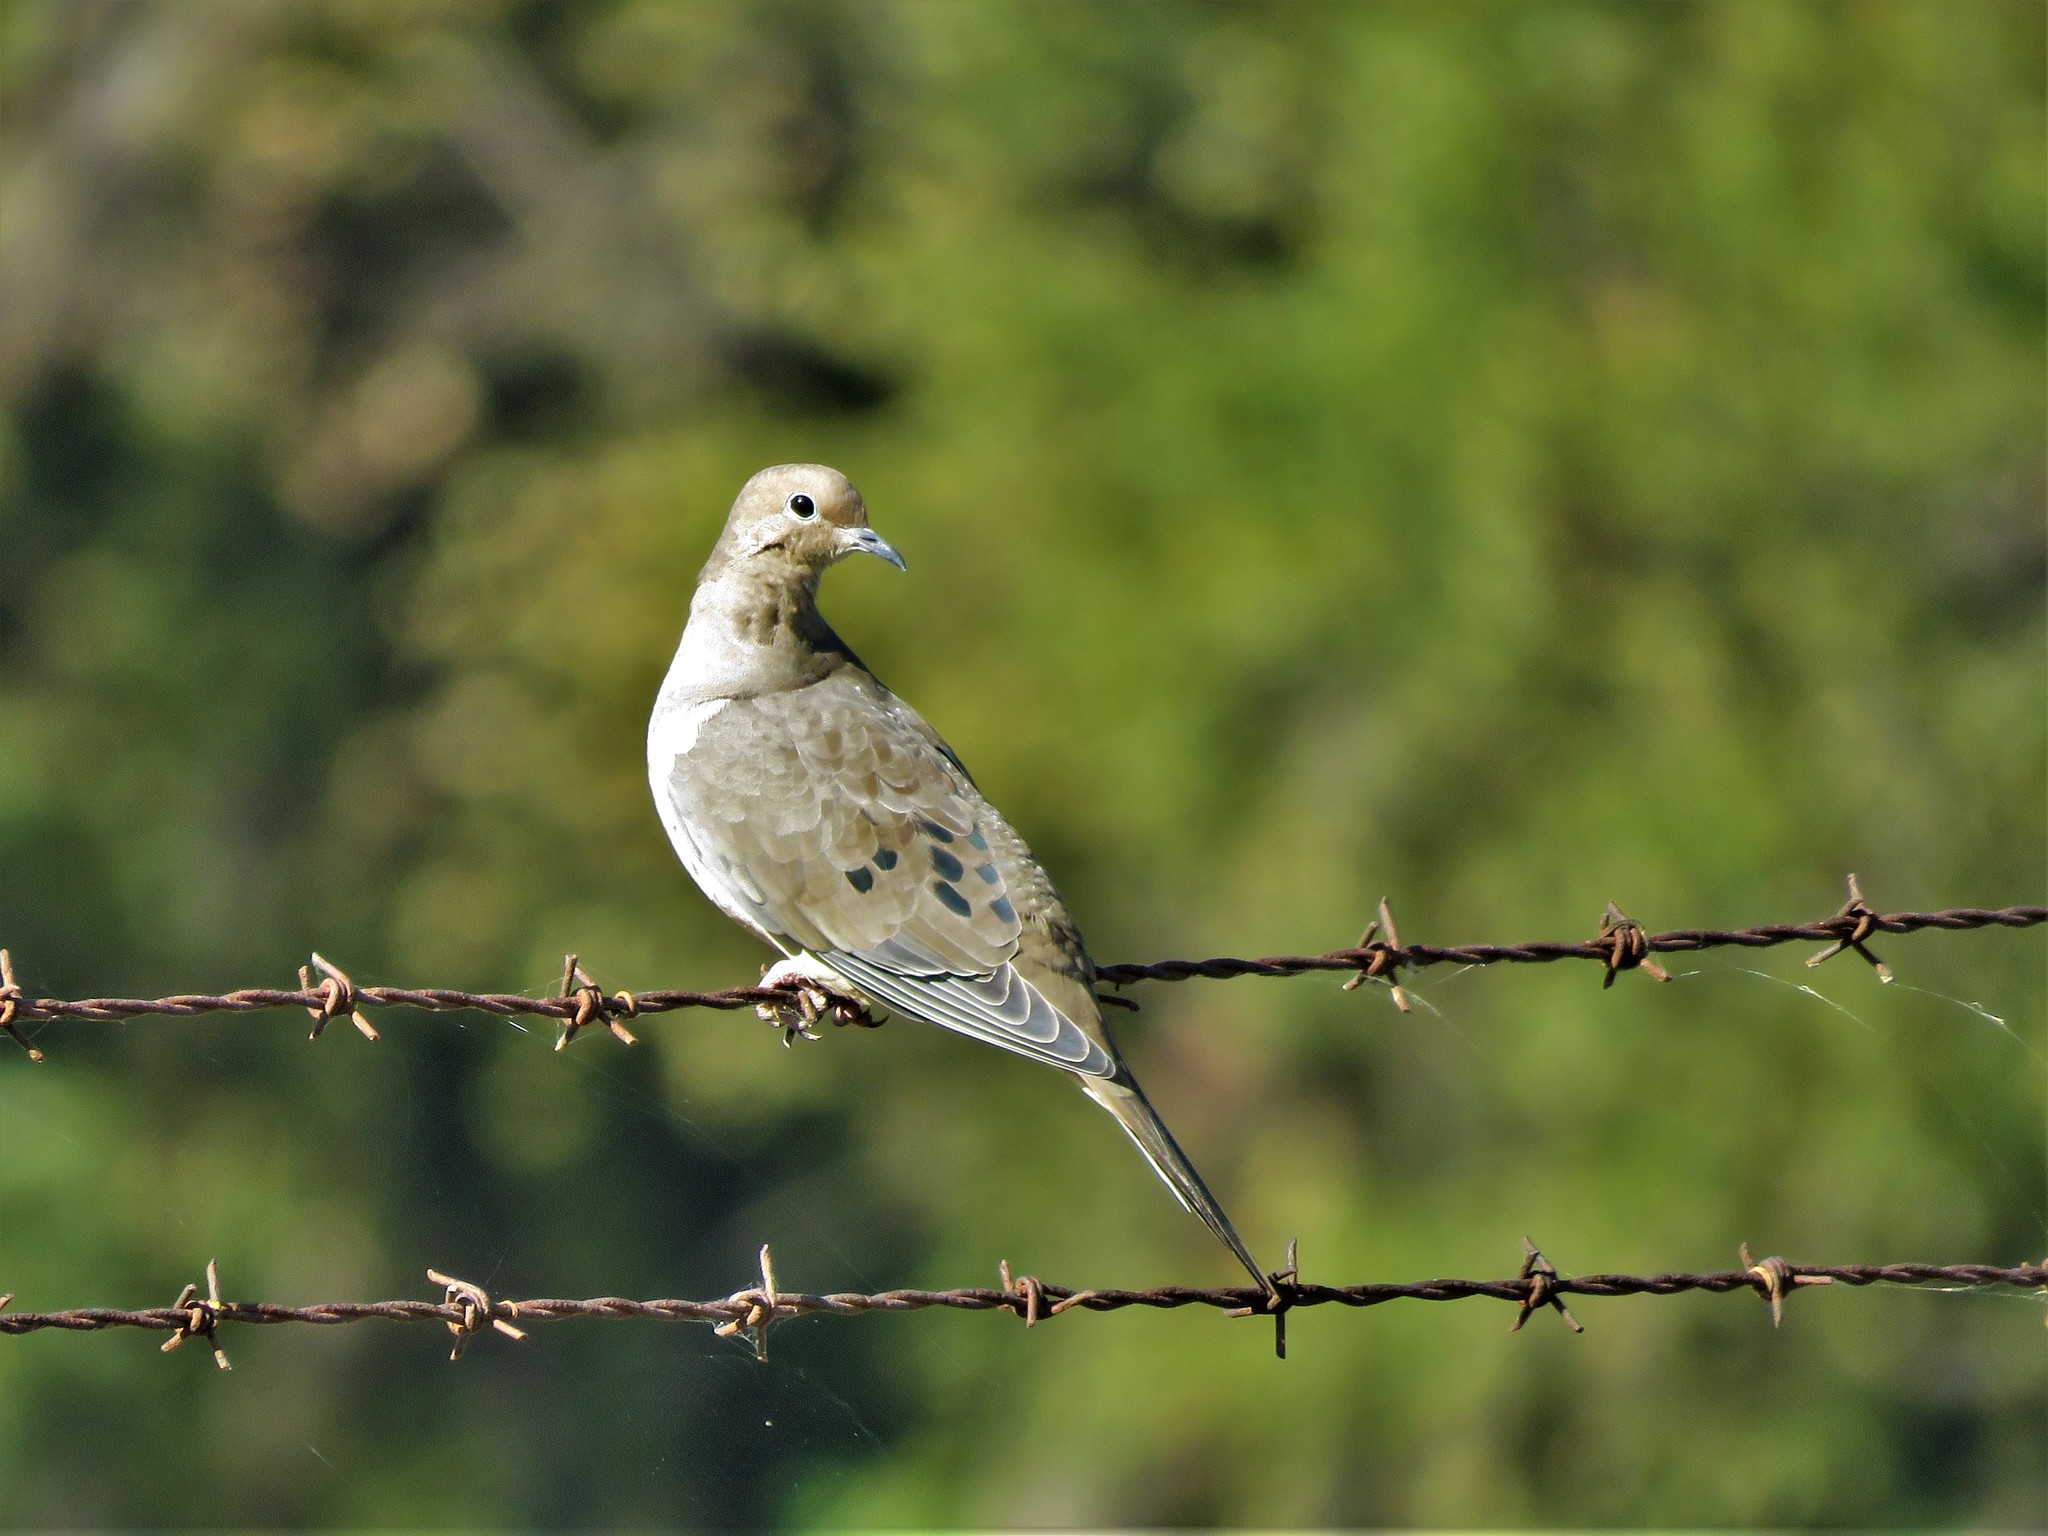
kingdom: Animalia
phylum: Chordata
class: Aves
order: Columbiformes
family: Columbidae
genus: Zenaida
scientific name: Zenaida macroura
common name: Mourning dove
